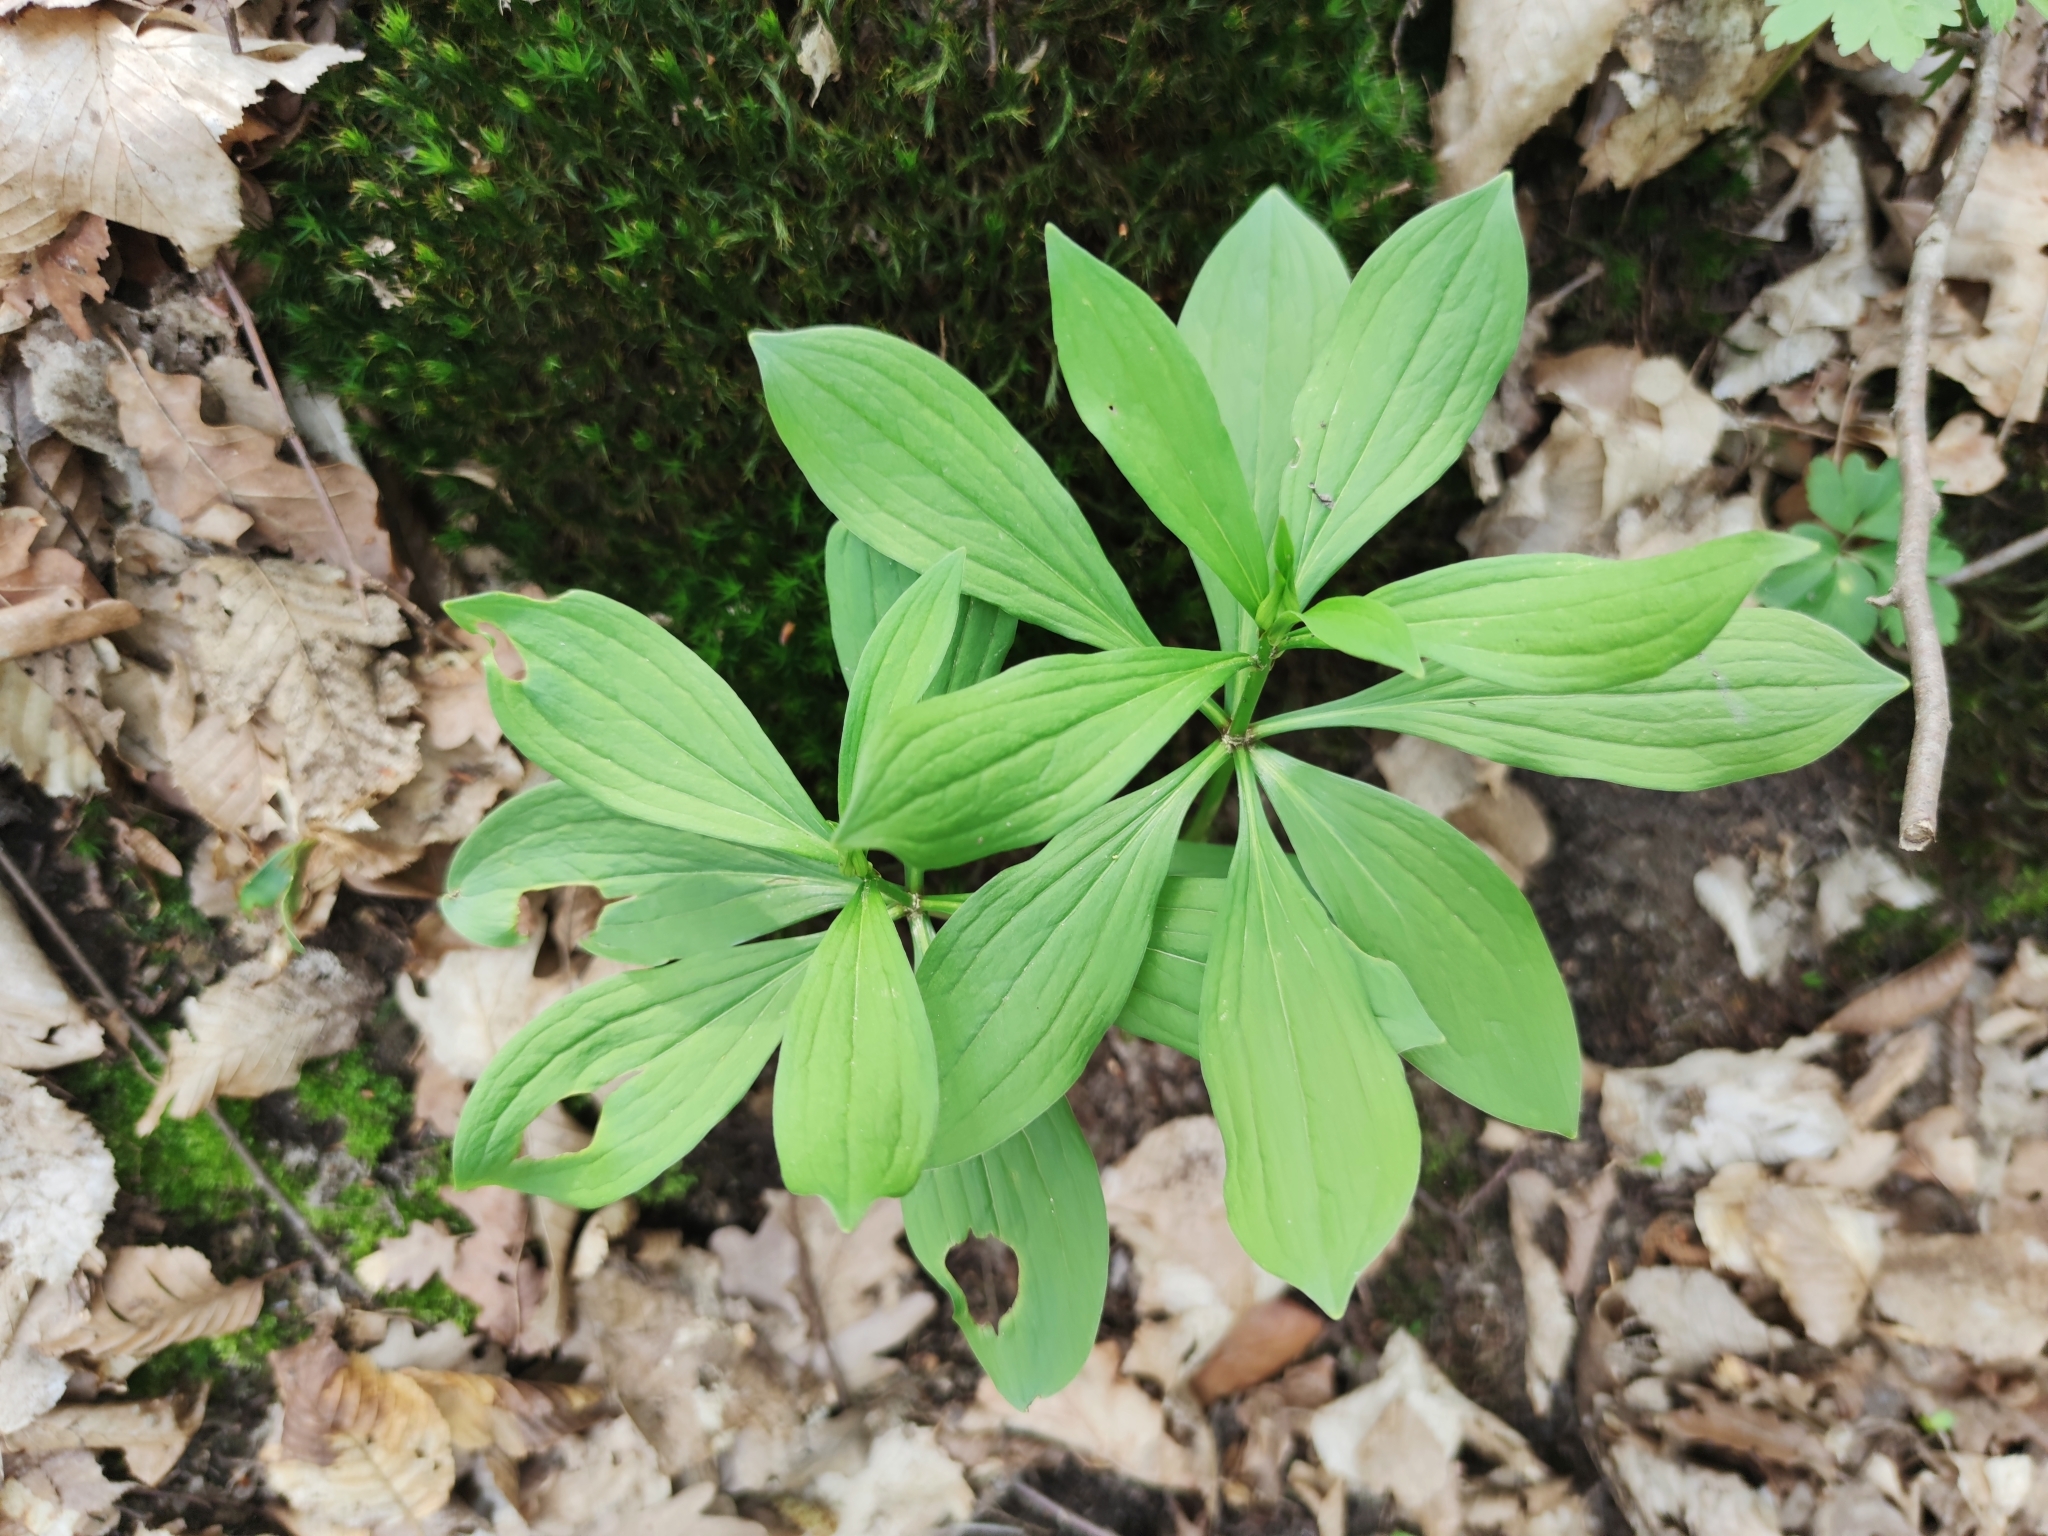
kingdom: Plantae
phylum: Tracheophyta
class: Liliopsida
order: Liliales
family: Liliaceae
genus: Lilium
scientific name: Lilium martagon
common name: Martagon lily
